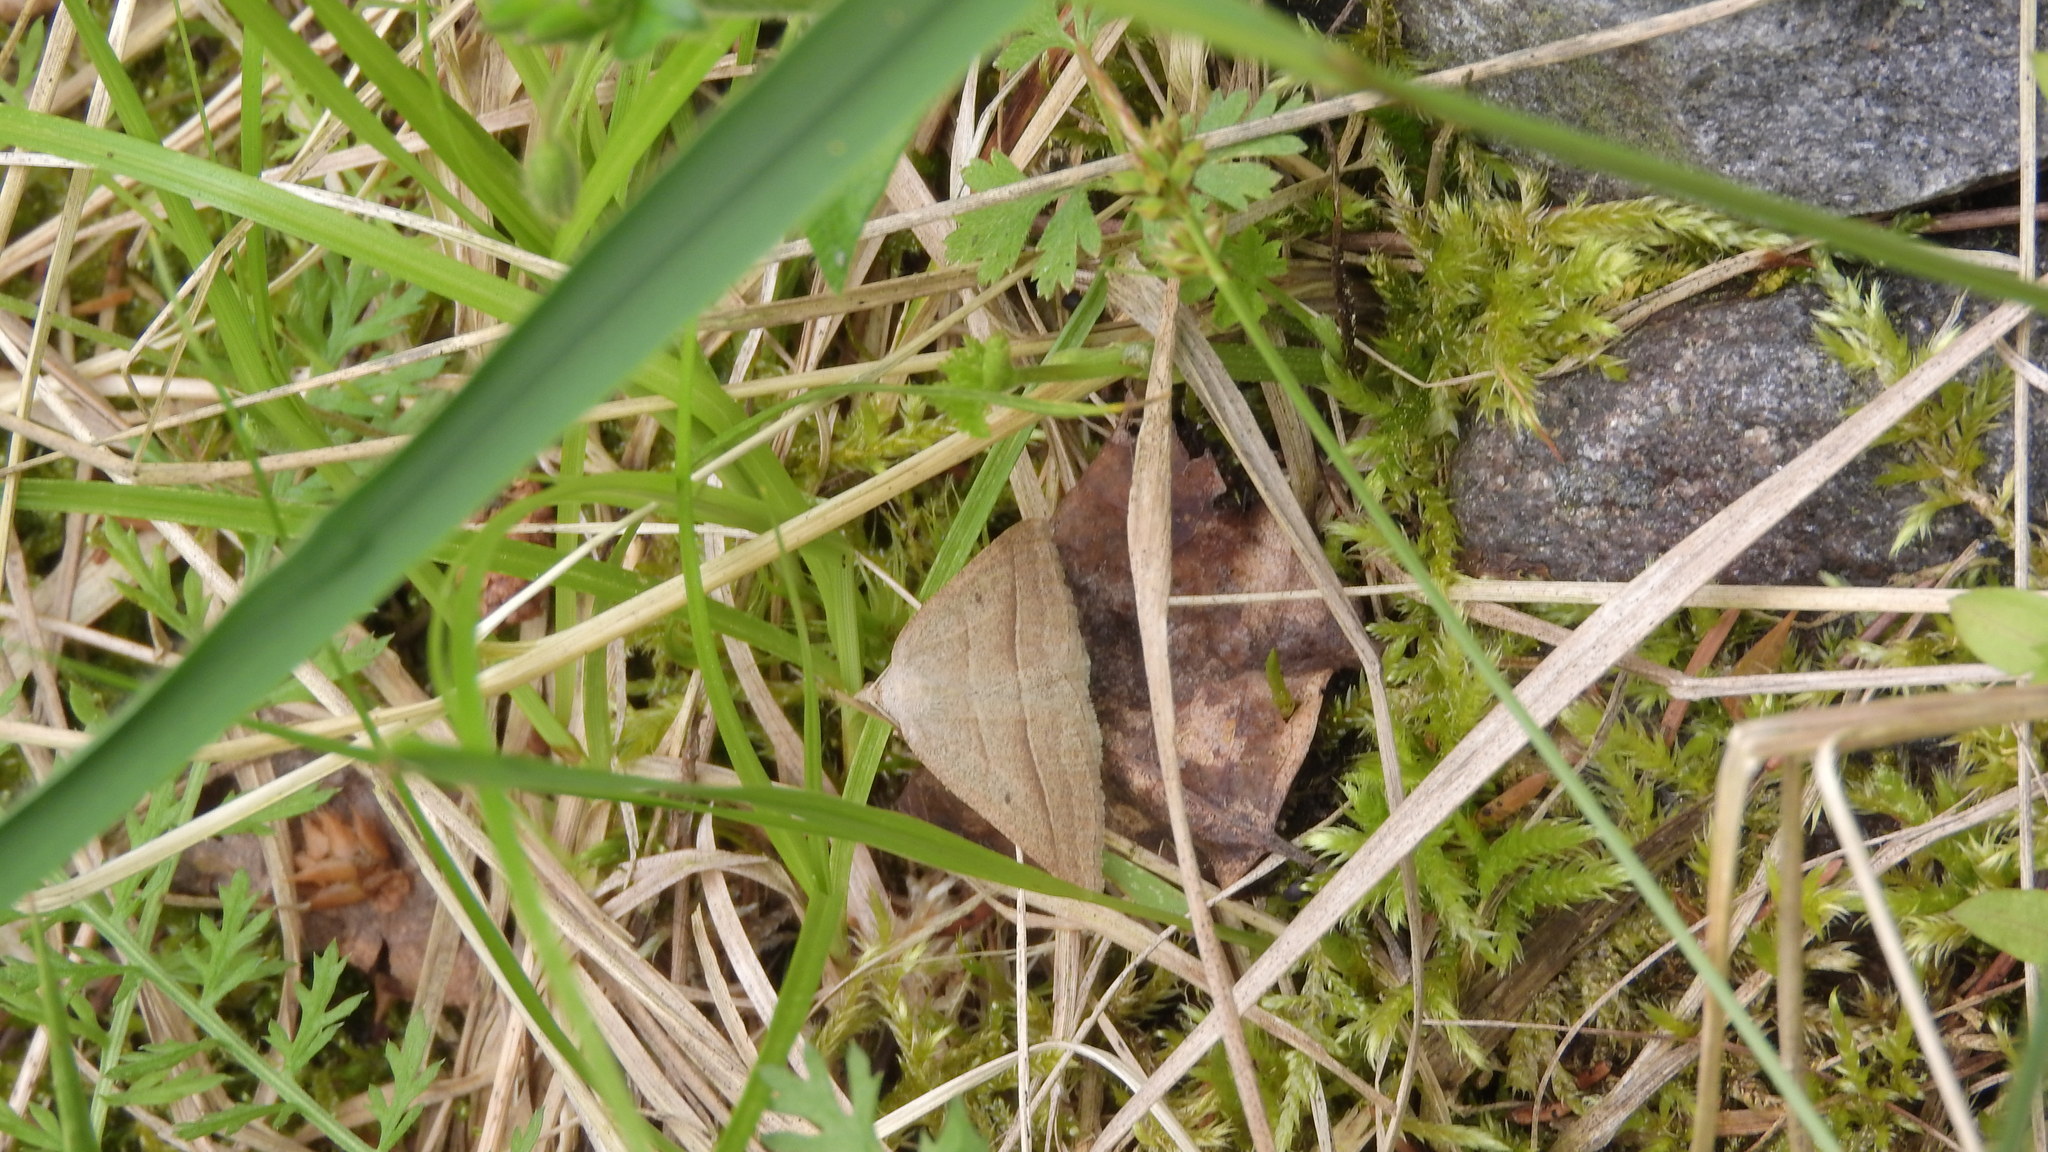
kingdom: Animalia
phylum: Arthropoda
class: Insecta
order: Lepidoptera
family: Pterophoridae
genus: Pterophorus
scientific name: Pterophorus Petrophora chlorosata
